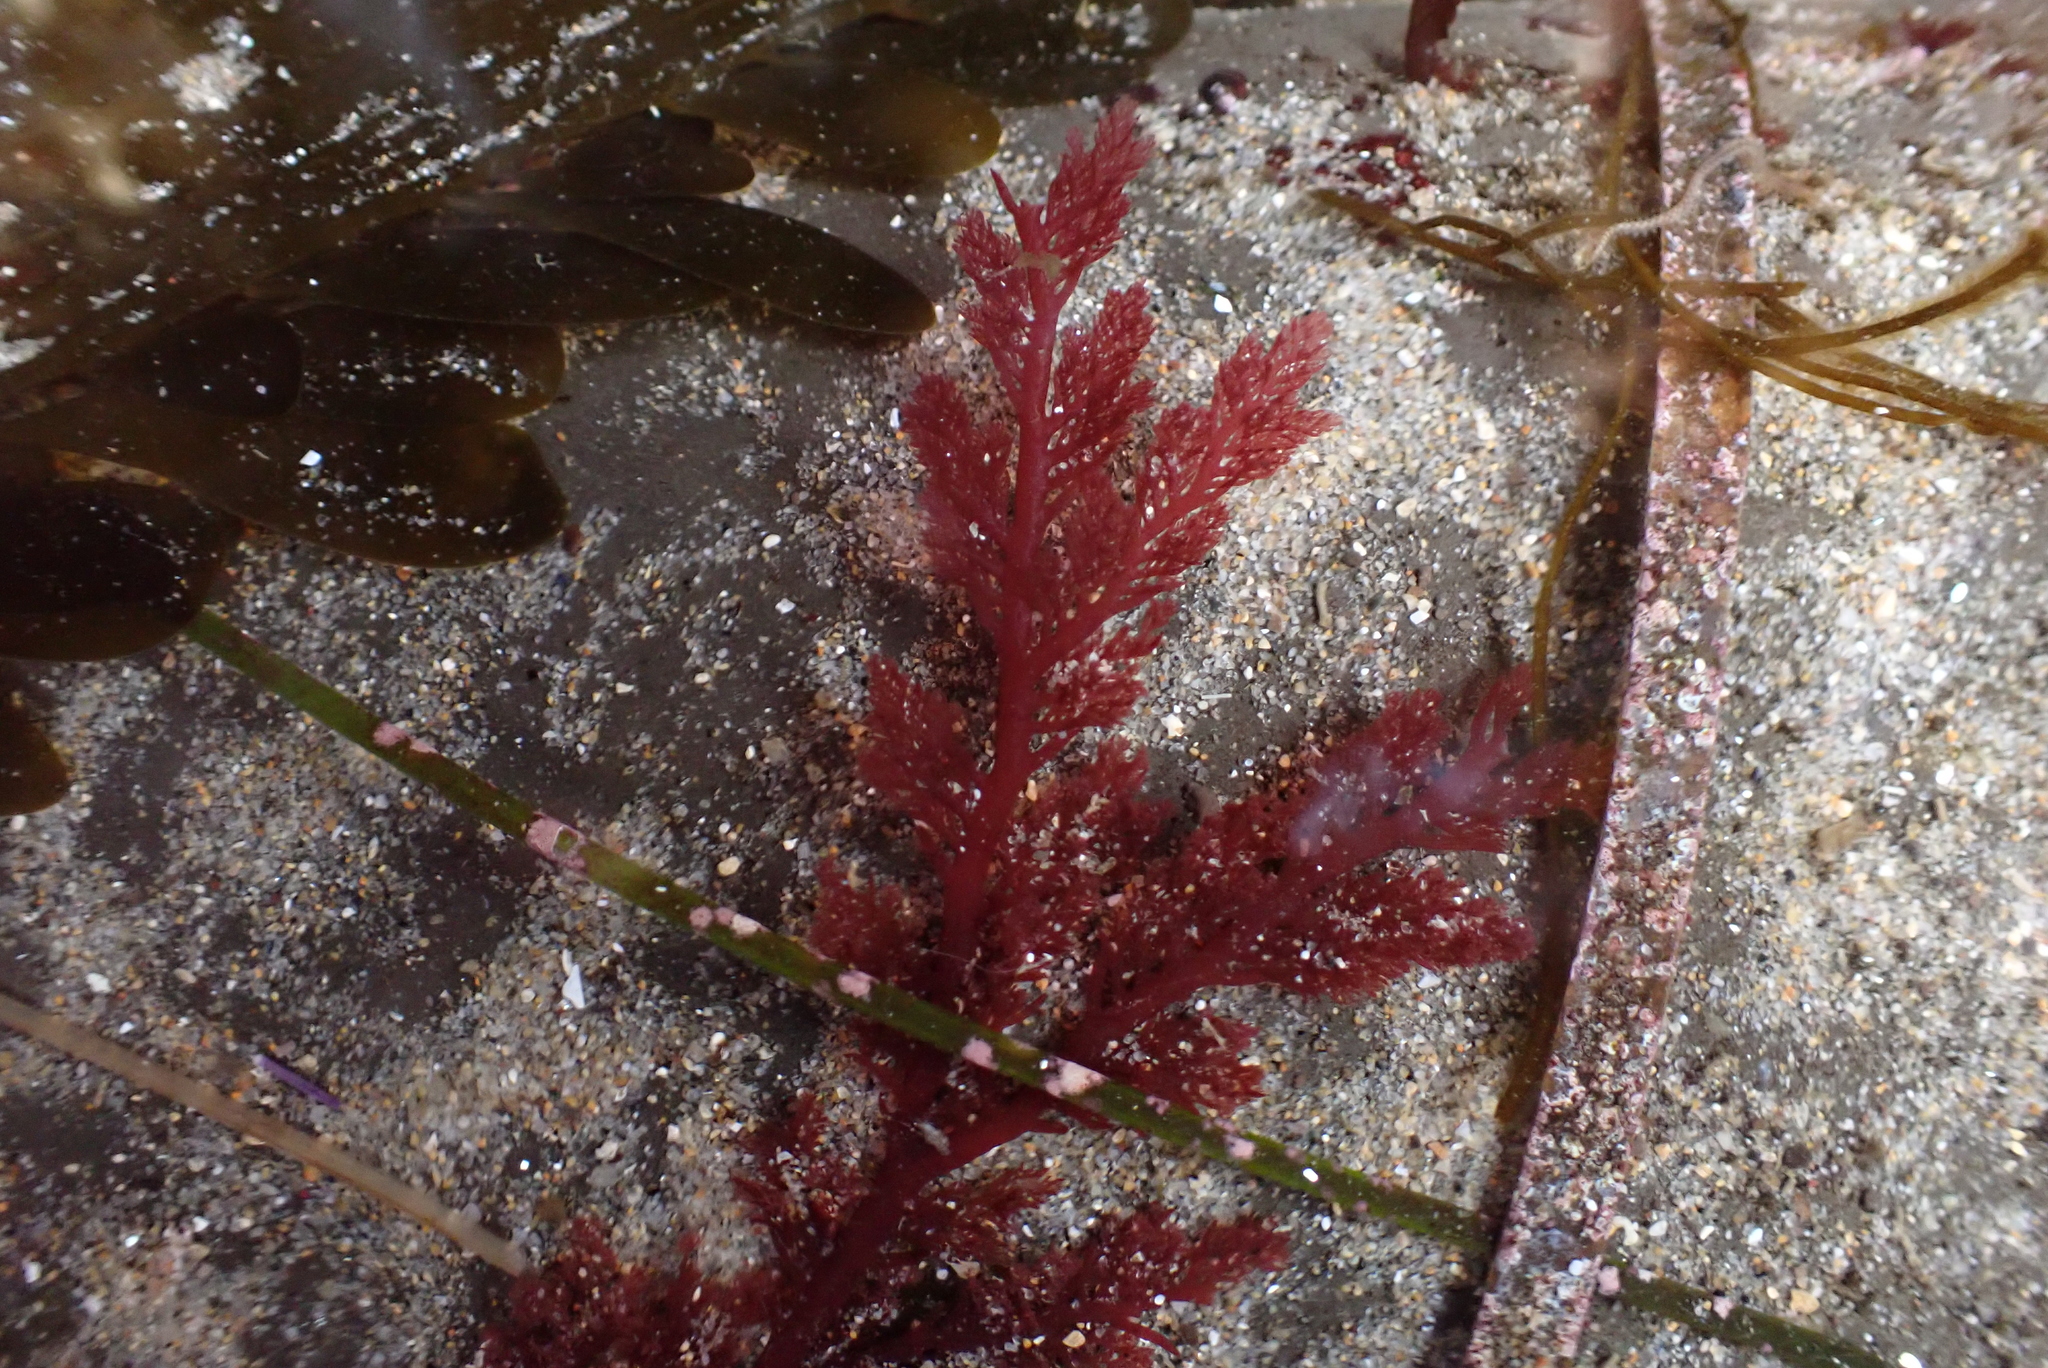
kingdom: Plantae
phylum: Rhodophyta
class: Florideophyceae
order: Plocamiales
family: Plocamiaceae
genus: Plocamium
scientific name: Plocamium cartilagineum
